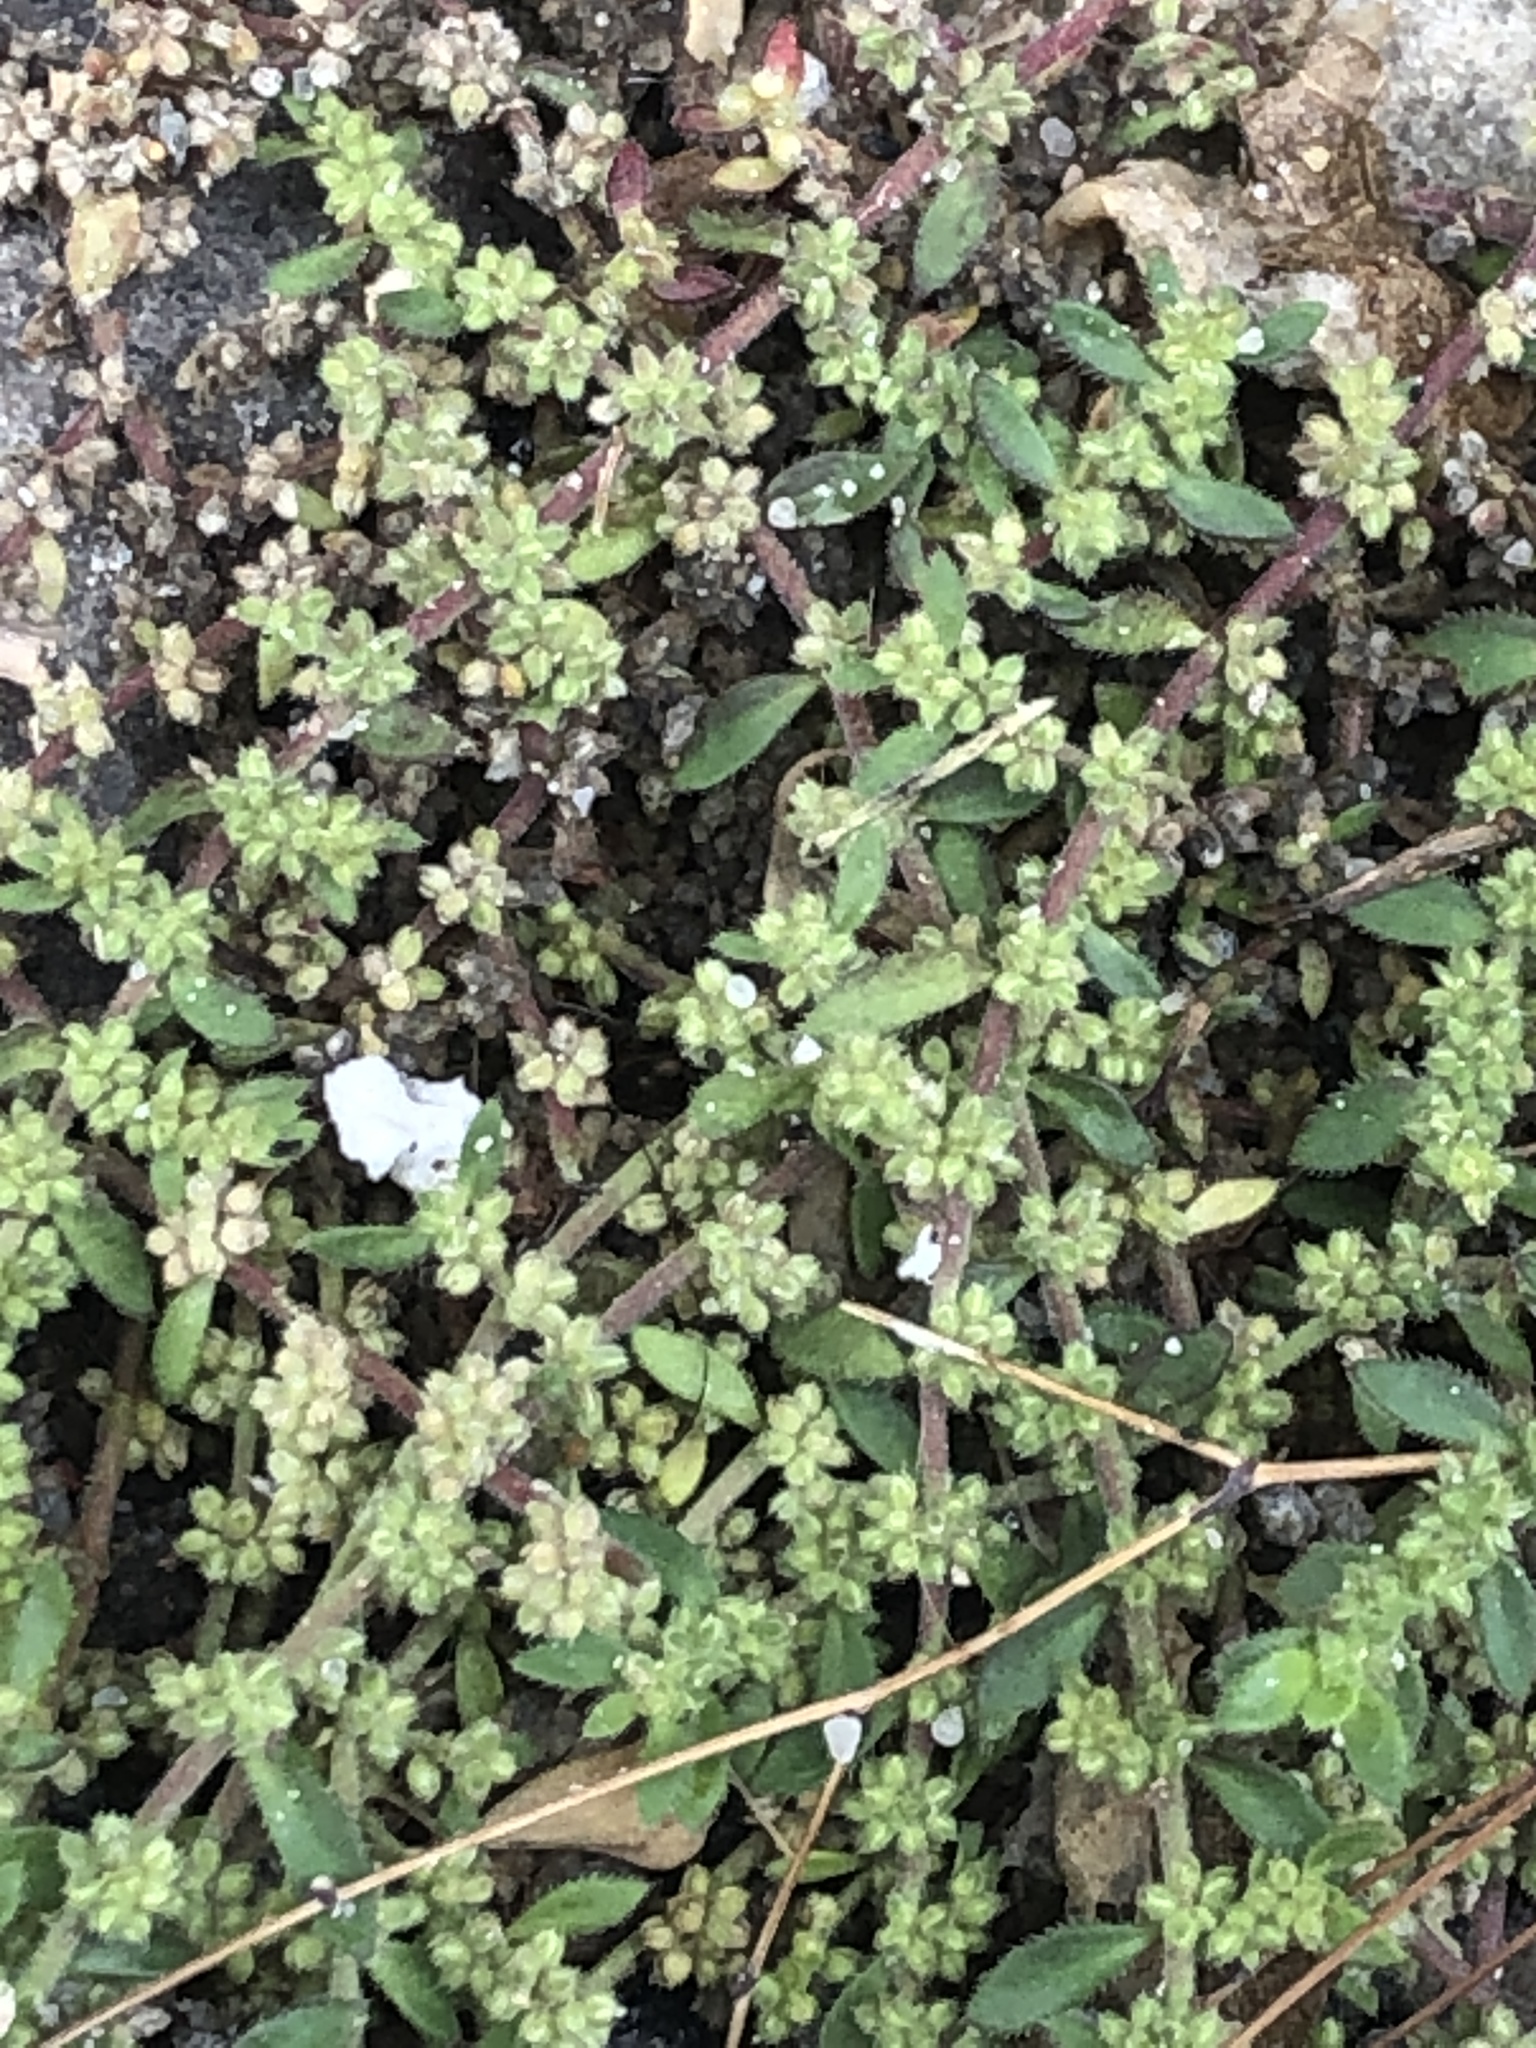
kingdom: Plantae
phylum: Tracheophyta
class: Magnoliopsida
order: Caryophyllales
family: Caryophyllaceae
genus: Herniaria
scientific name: Herniaria hirsuta
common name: Hairy rupturewort
